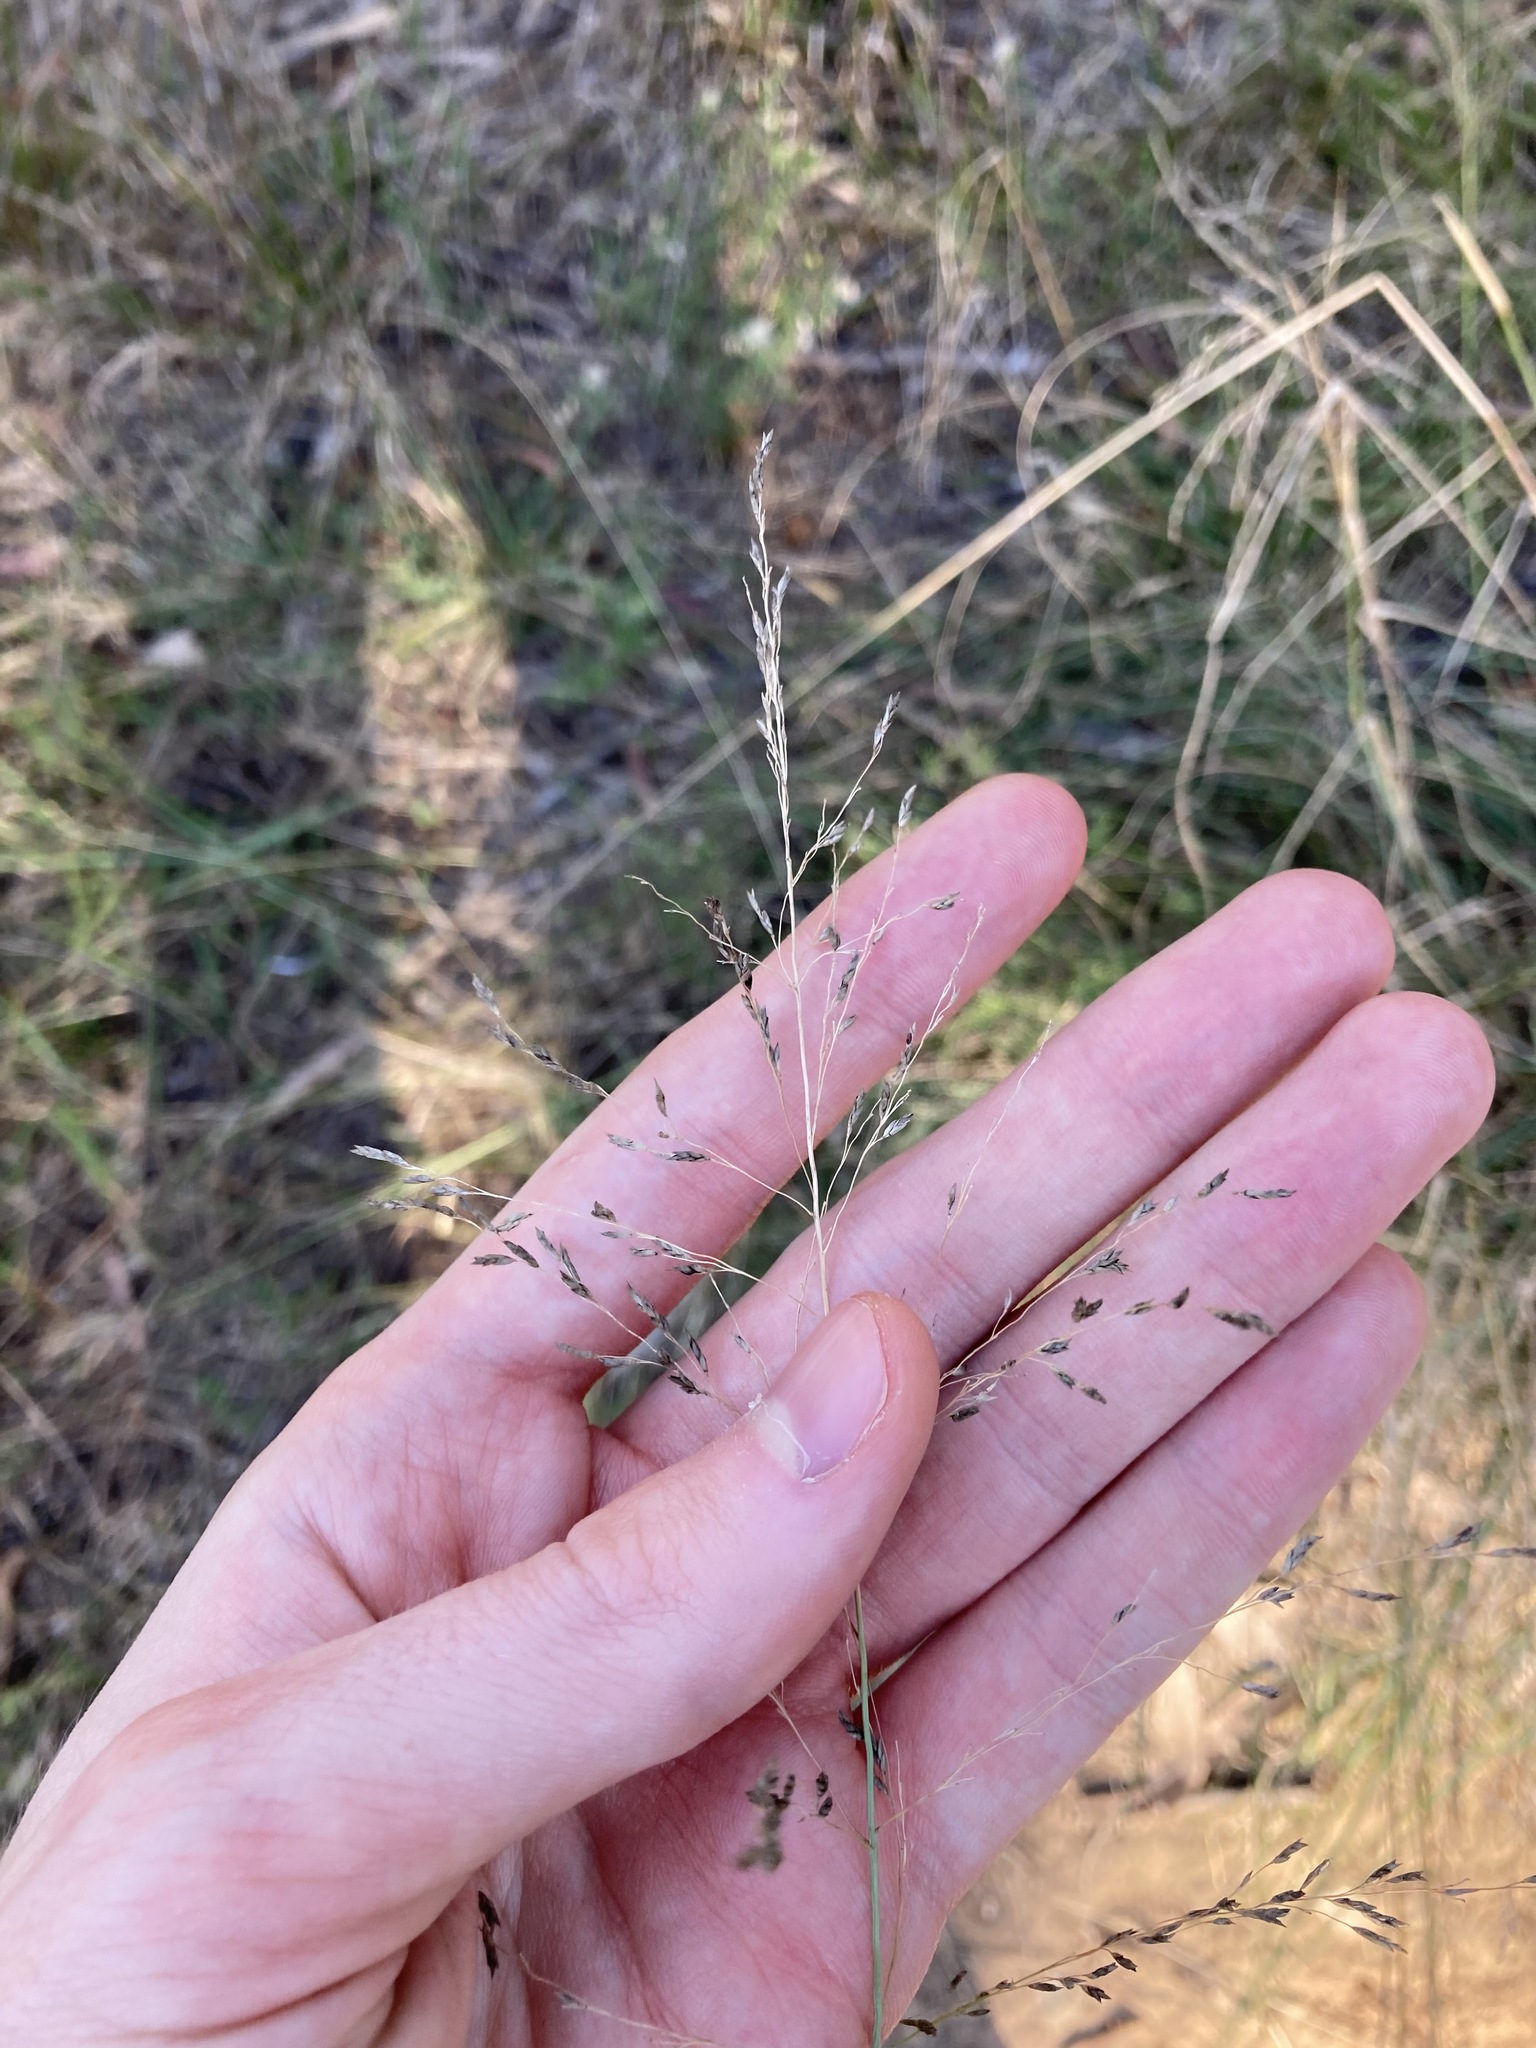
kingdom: Plantae
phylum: Tracheophyta
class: Liliopsida
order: Poales
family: Poaceae
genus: Eragrostis
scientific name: Eragrostis curvula
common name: African love-grass
